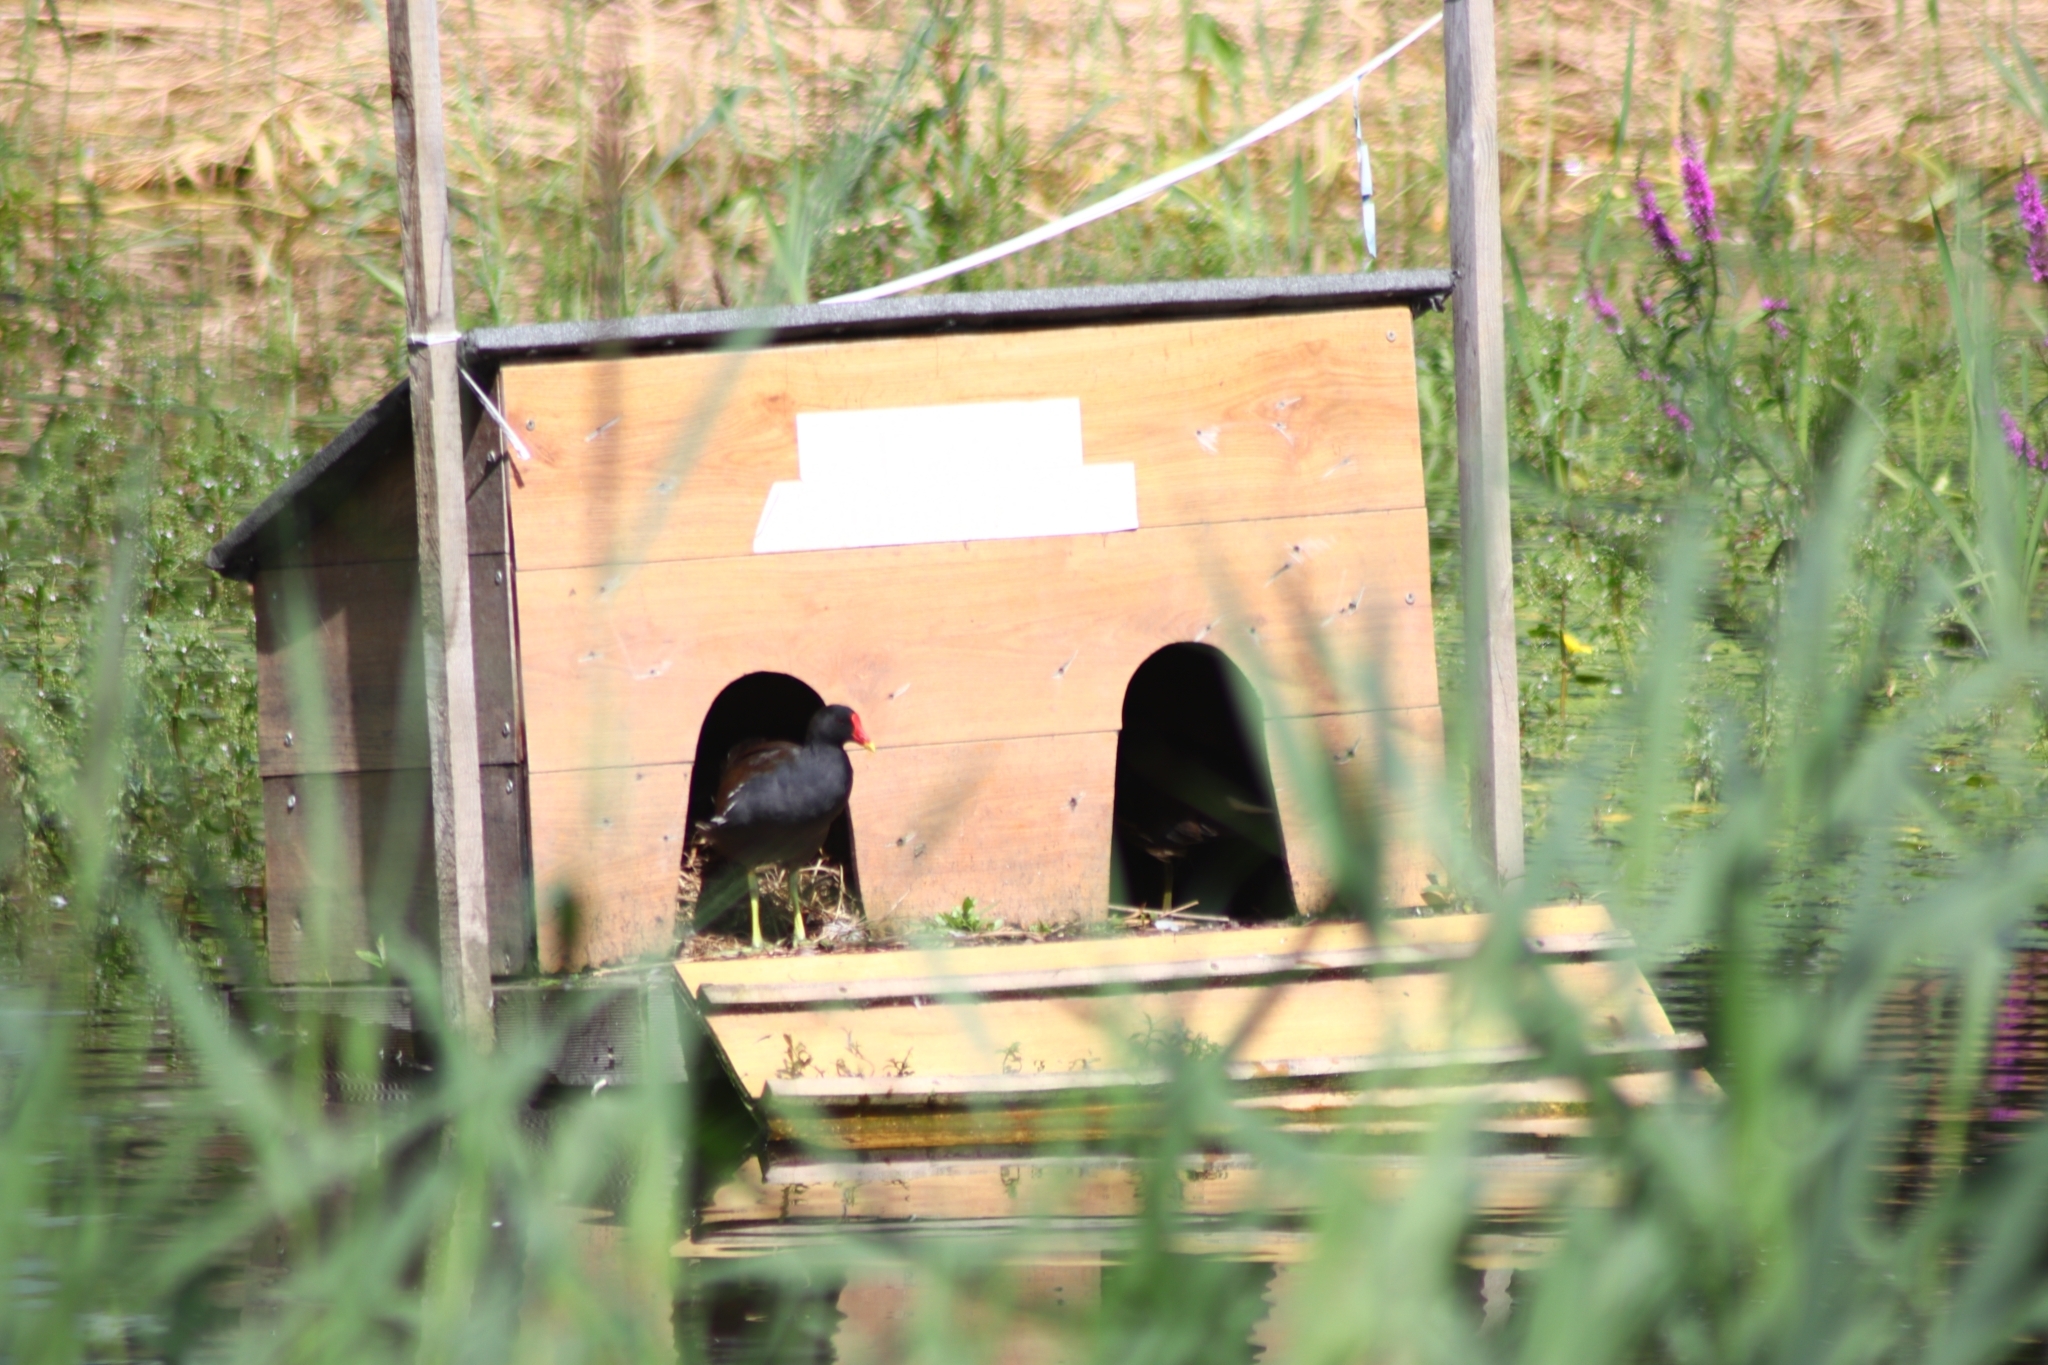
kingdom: Animalia
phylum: Chordata
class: Aves
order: Gruiformes
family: Rallidae
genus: Gallinula
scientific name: Gallinula chloropus
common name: Common moorhen
